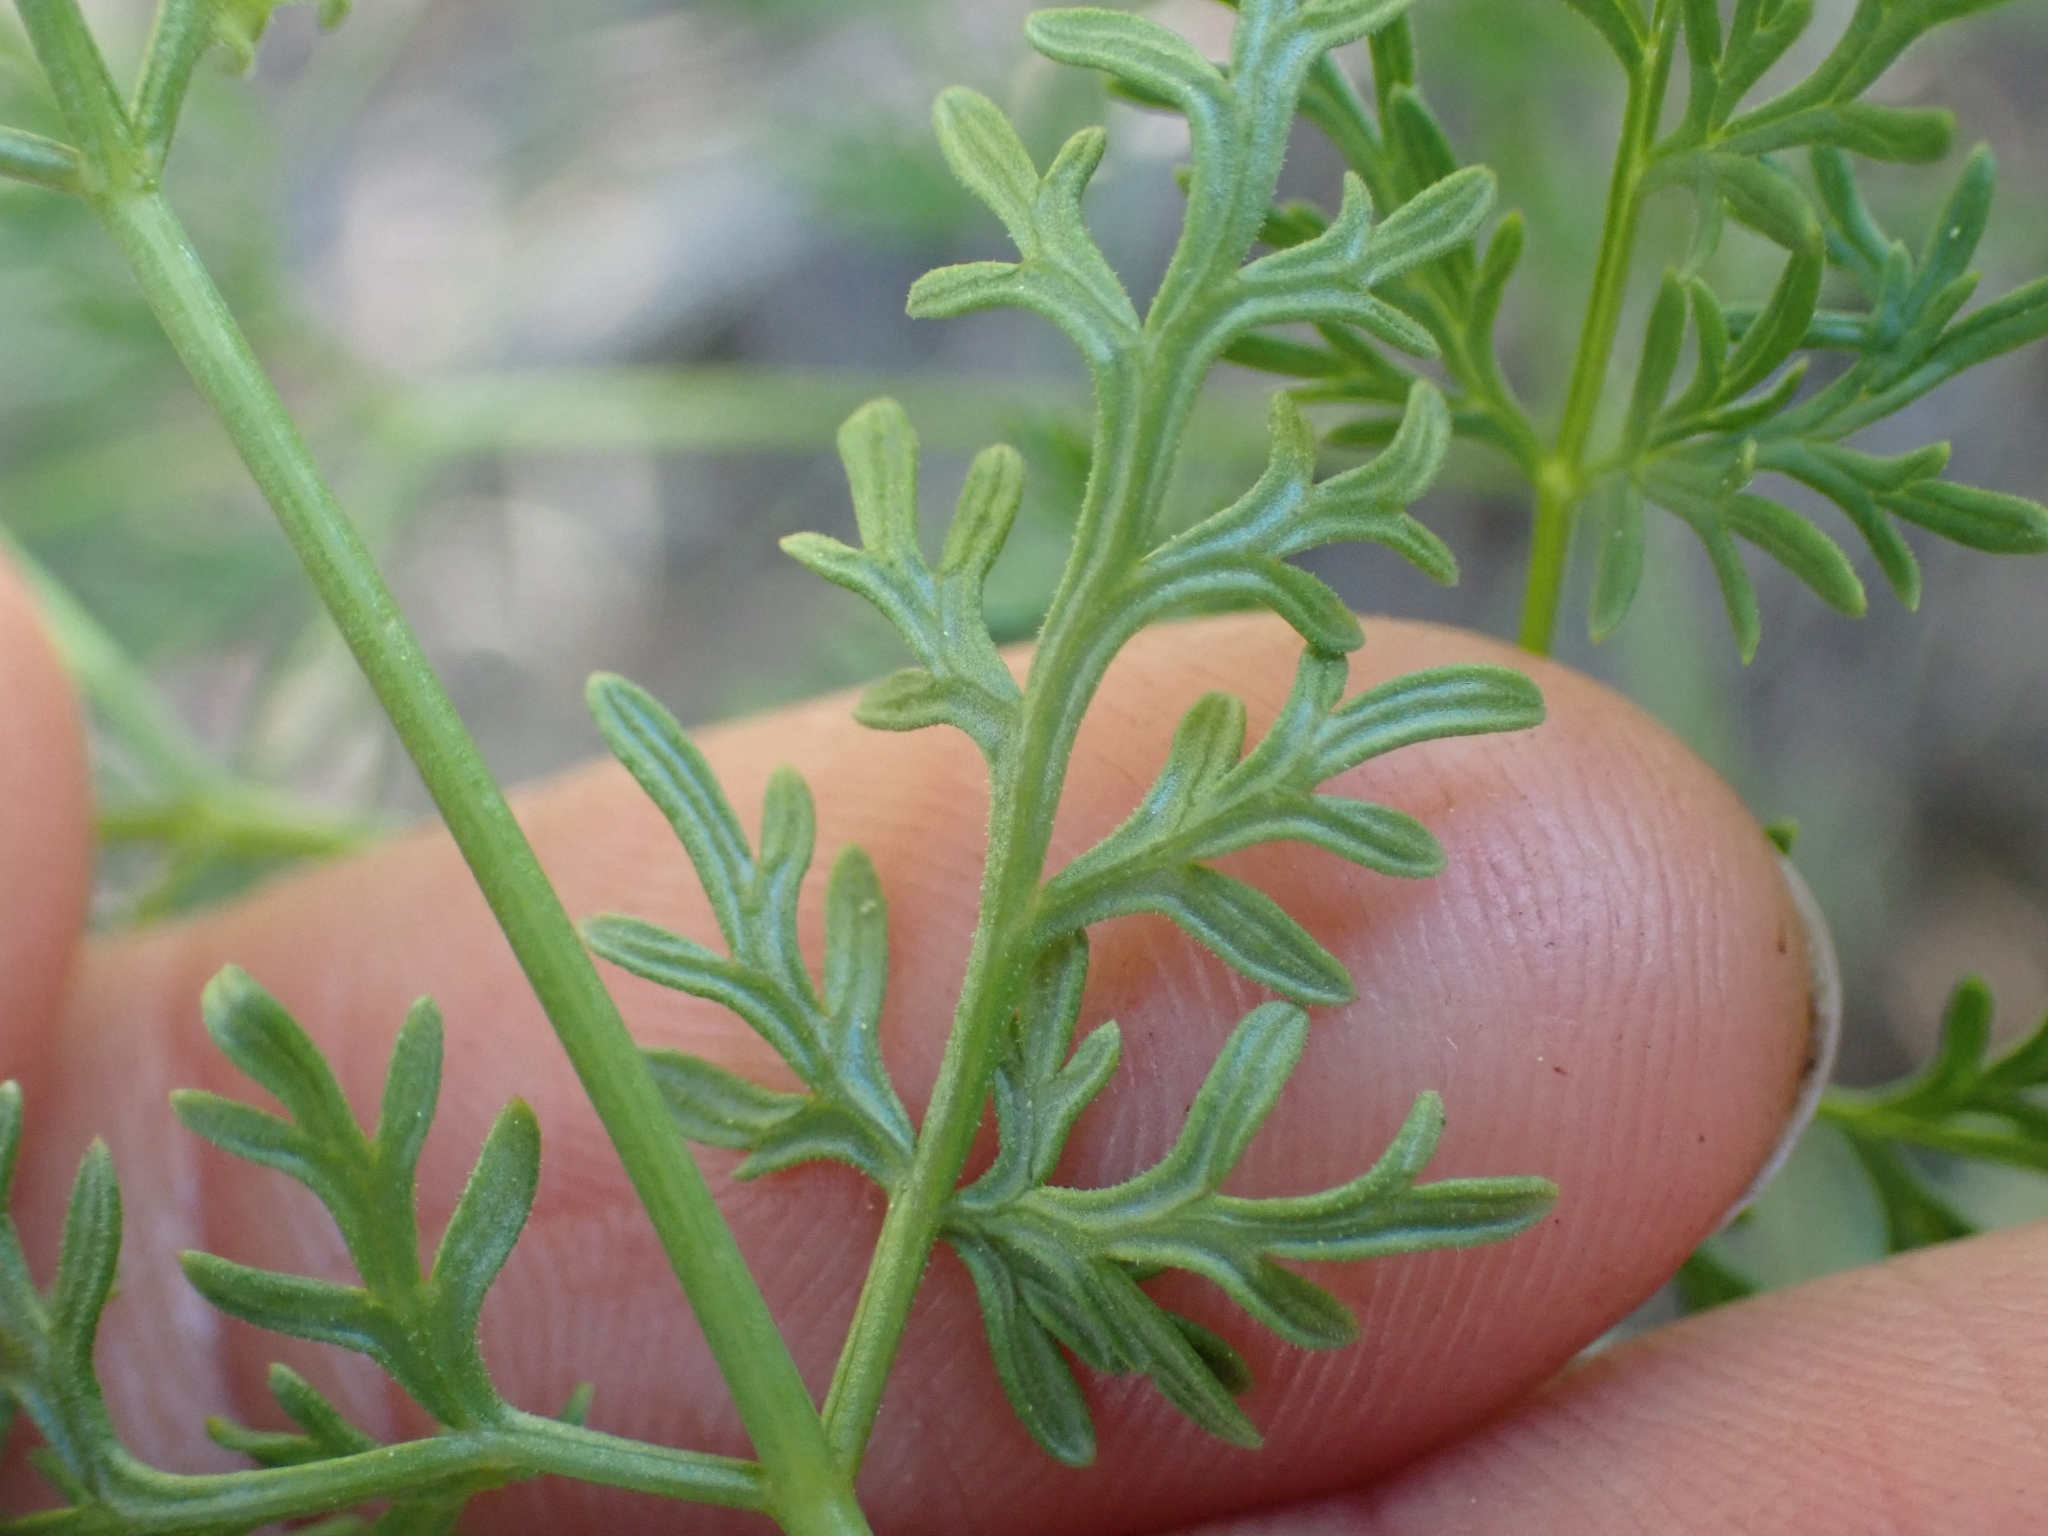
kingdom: Plantae
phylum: Tracheophyta
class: Magnoliopsida
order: Apiales
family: Apiaceae
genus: Lomatium
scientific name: Lomatium multifidum
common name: Carrot-leaved biscuitroot
